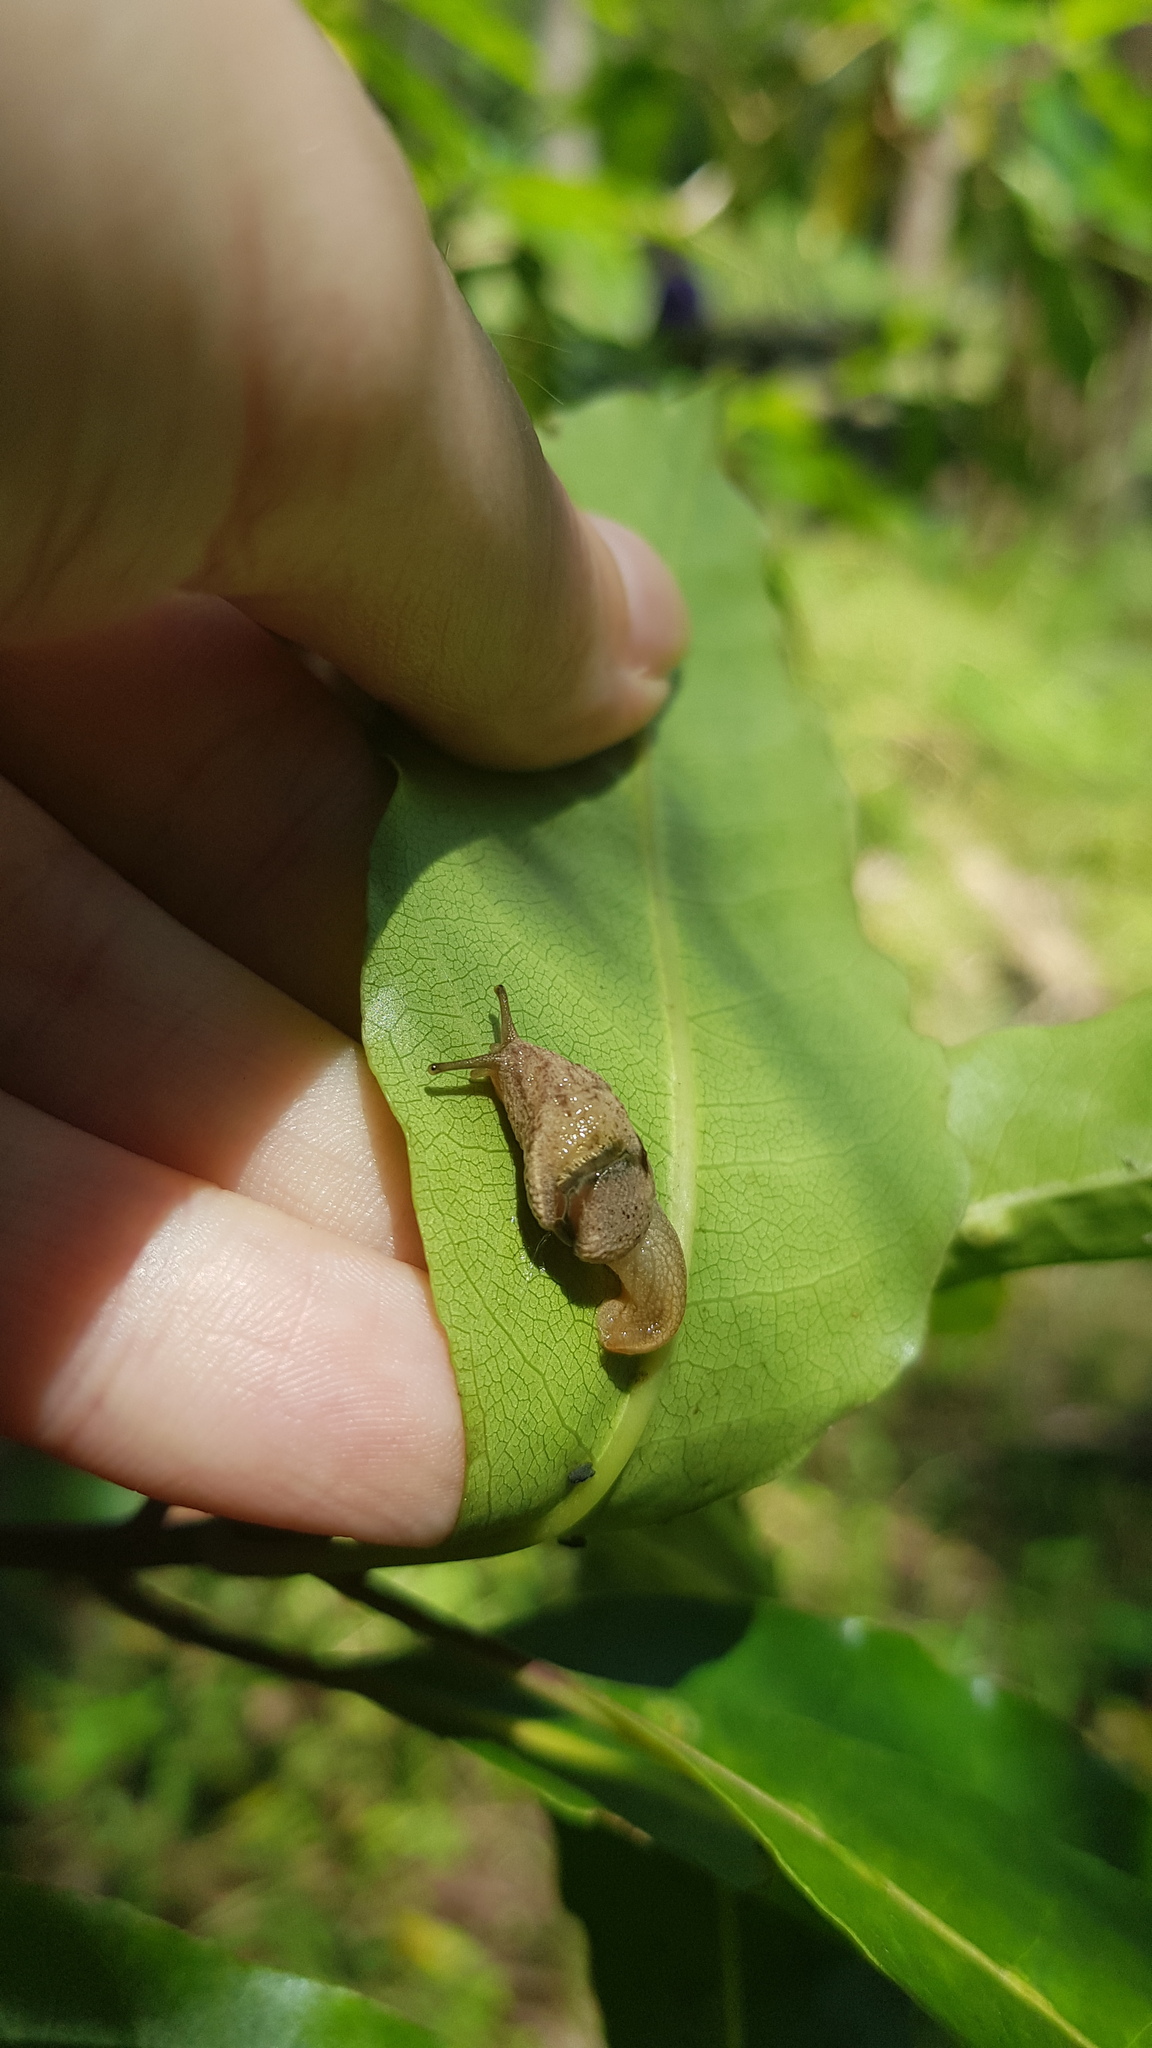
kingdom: Animalia
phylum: Mollusca
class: Gastropoda
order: Stylommatophora
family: Helicarionidae
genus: Ubiquitarion
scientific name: Ubiquitarion iridis
